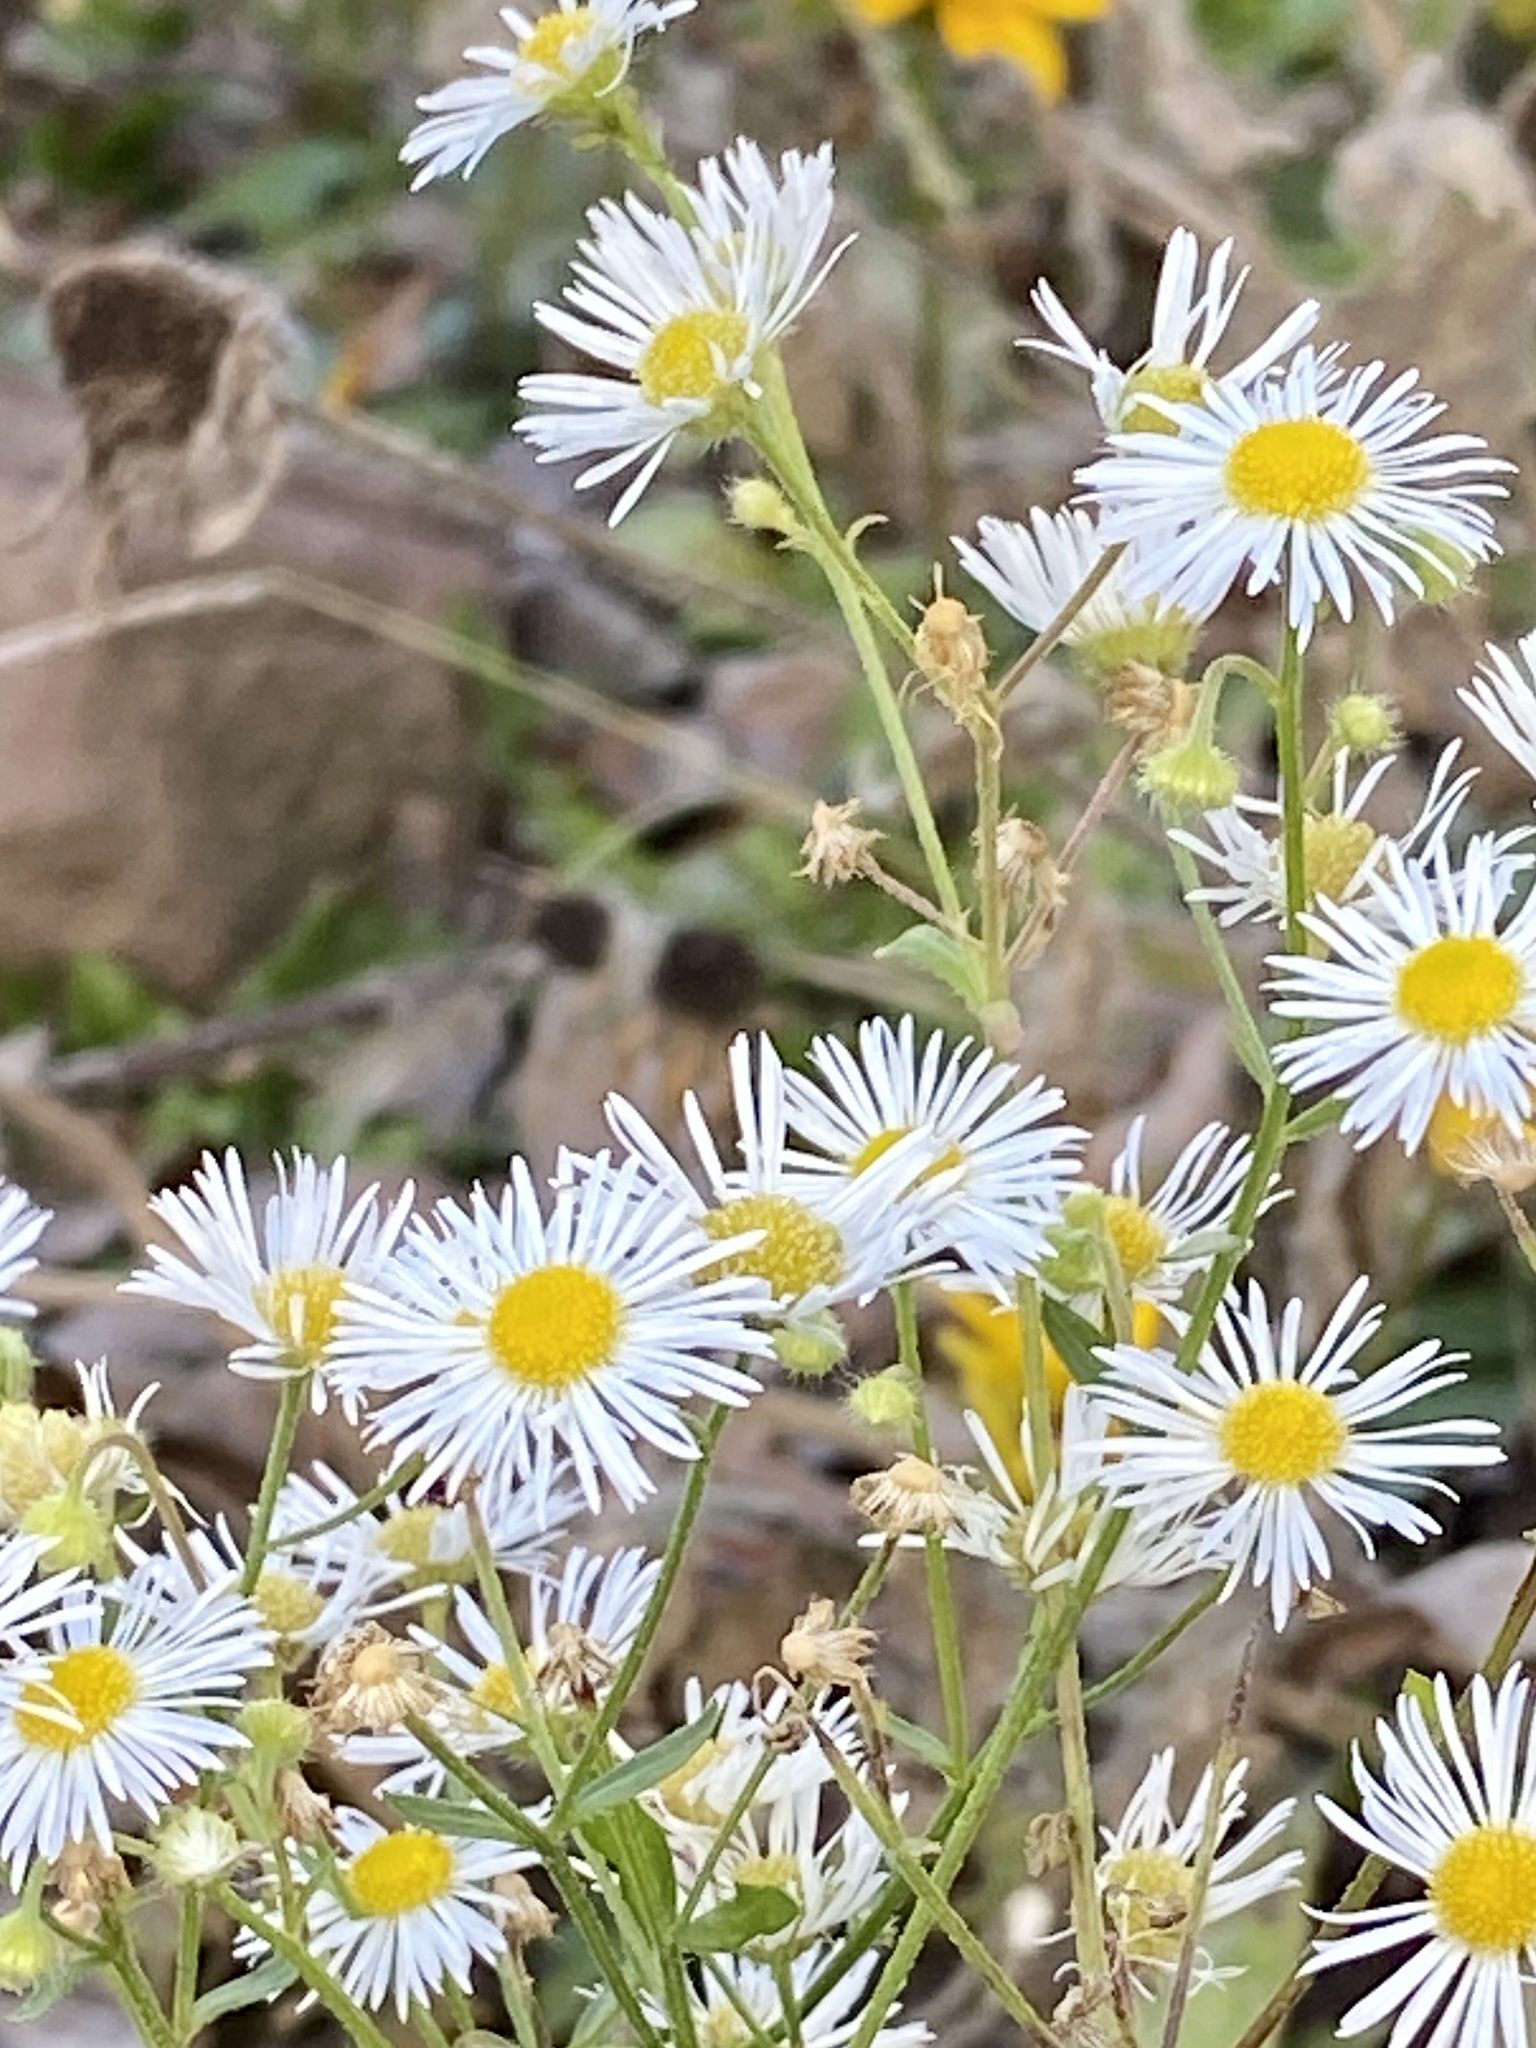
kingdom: Plantae
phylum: Tracheophyta
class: Magnoliopsida
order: Asterales
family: Asteraceae
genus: Erigeron
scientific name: Erigeron annuus
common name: Tall fleabane
